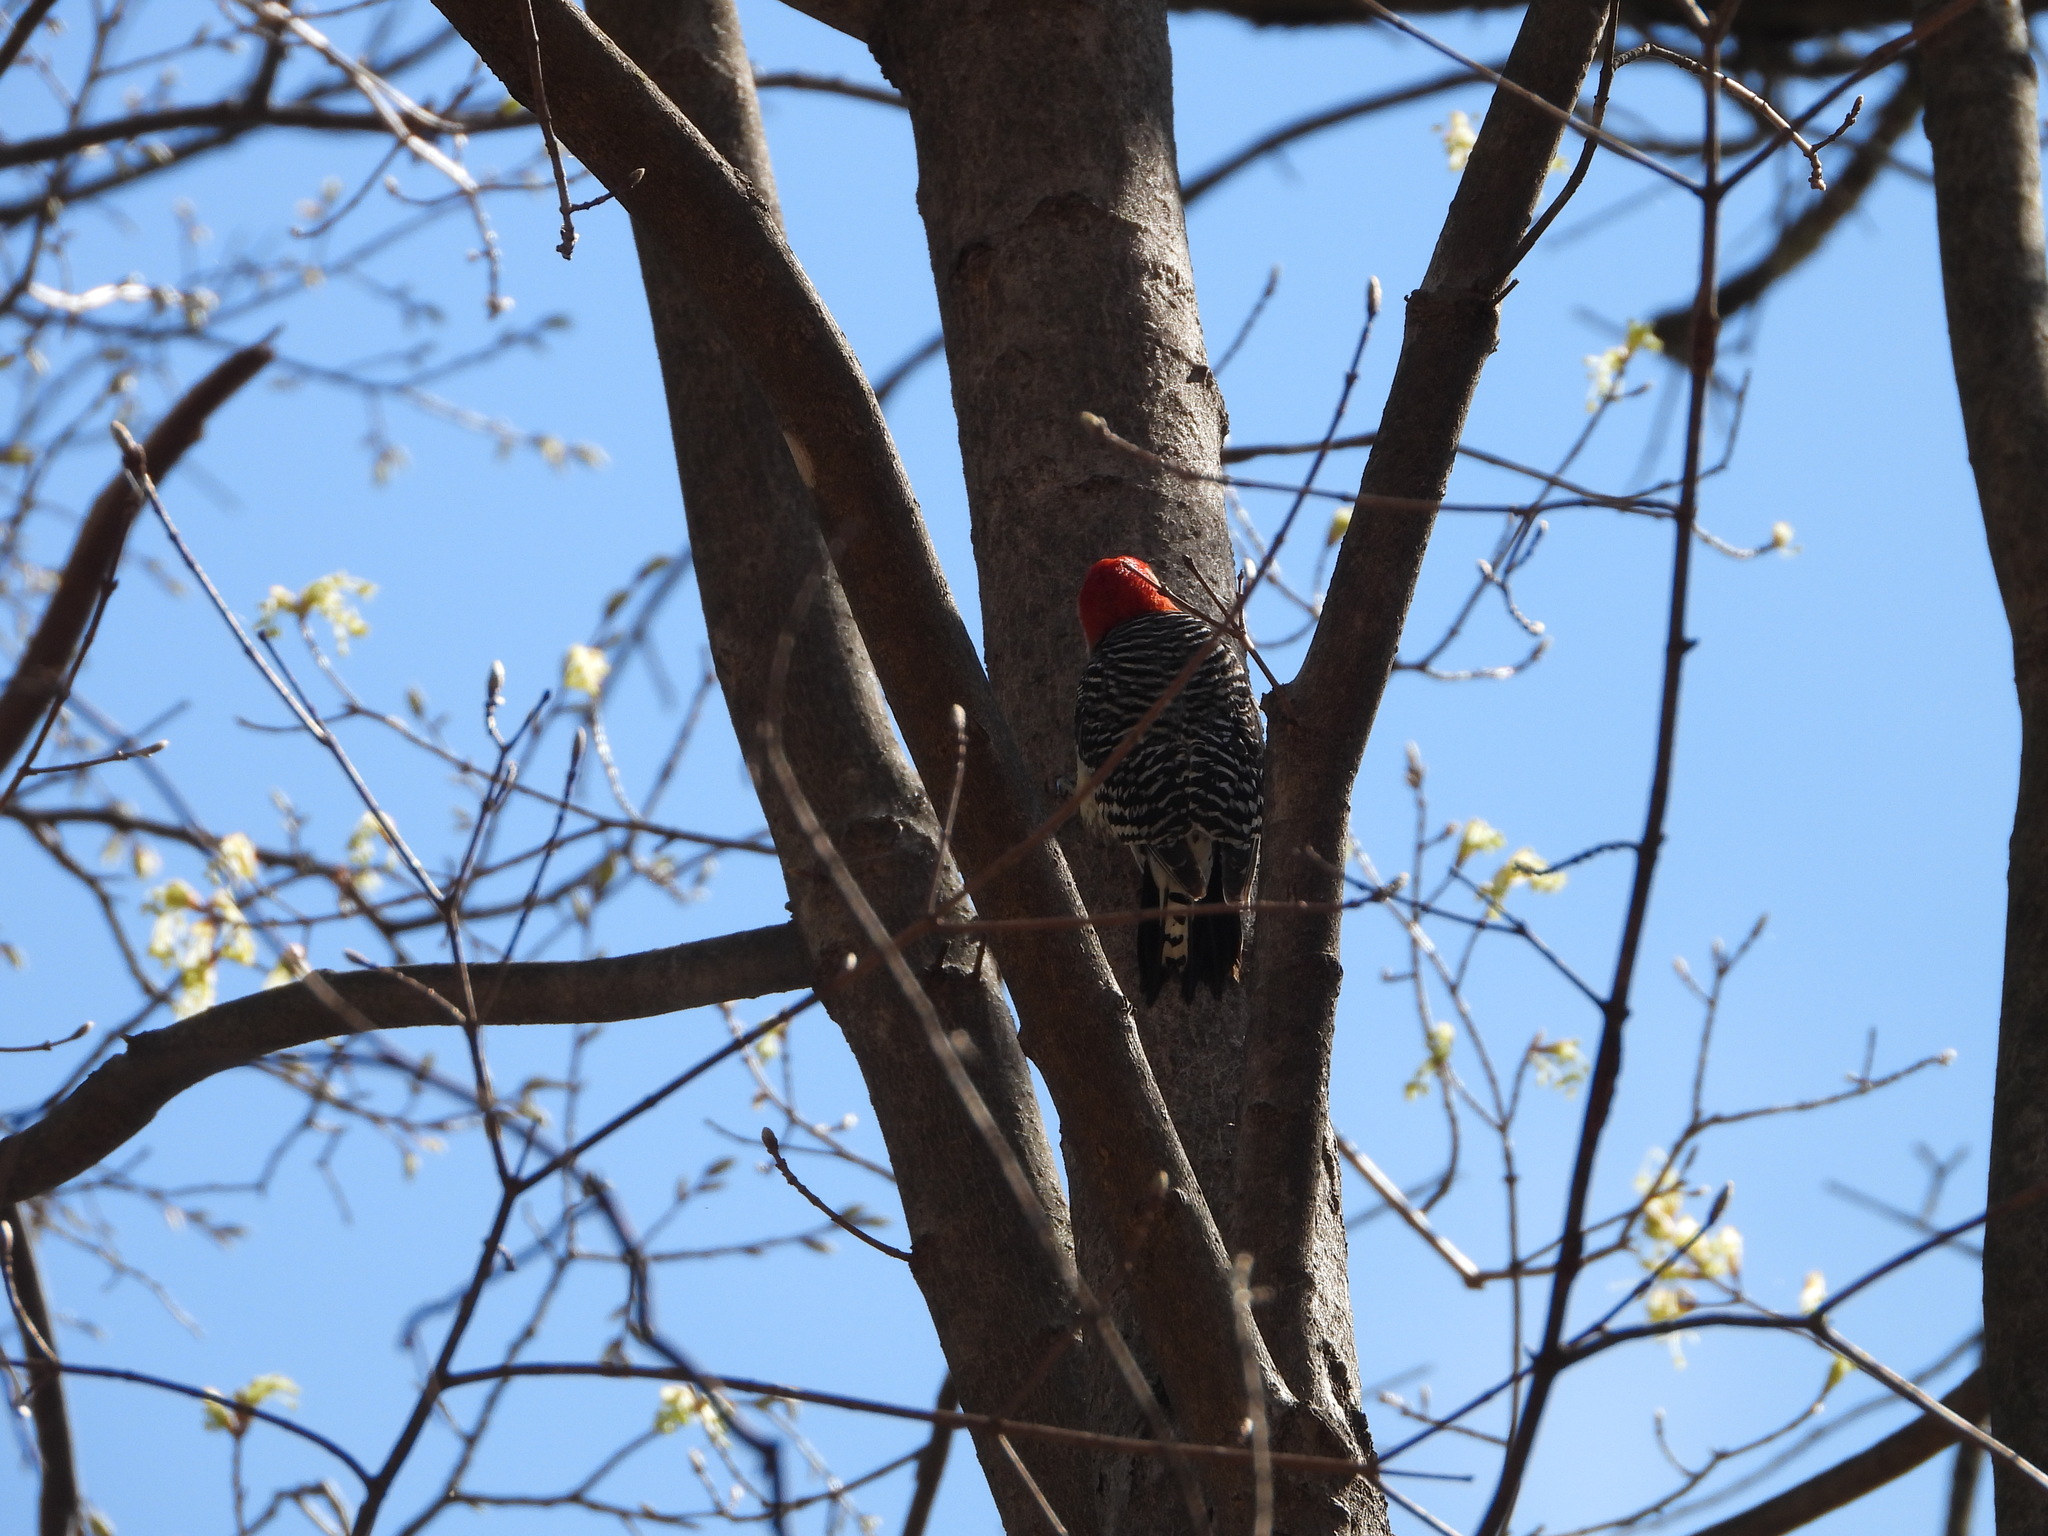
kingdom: Animalia
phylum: Chordata
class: Aves
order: Piciformes
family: Picidae
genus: Melanerpes
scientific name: Melanerpes carolinus
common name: Red-bellied woodpecker
